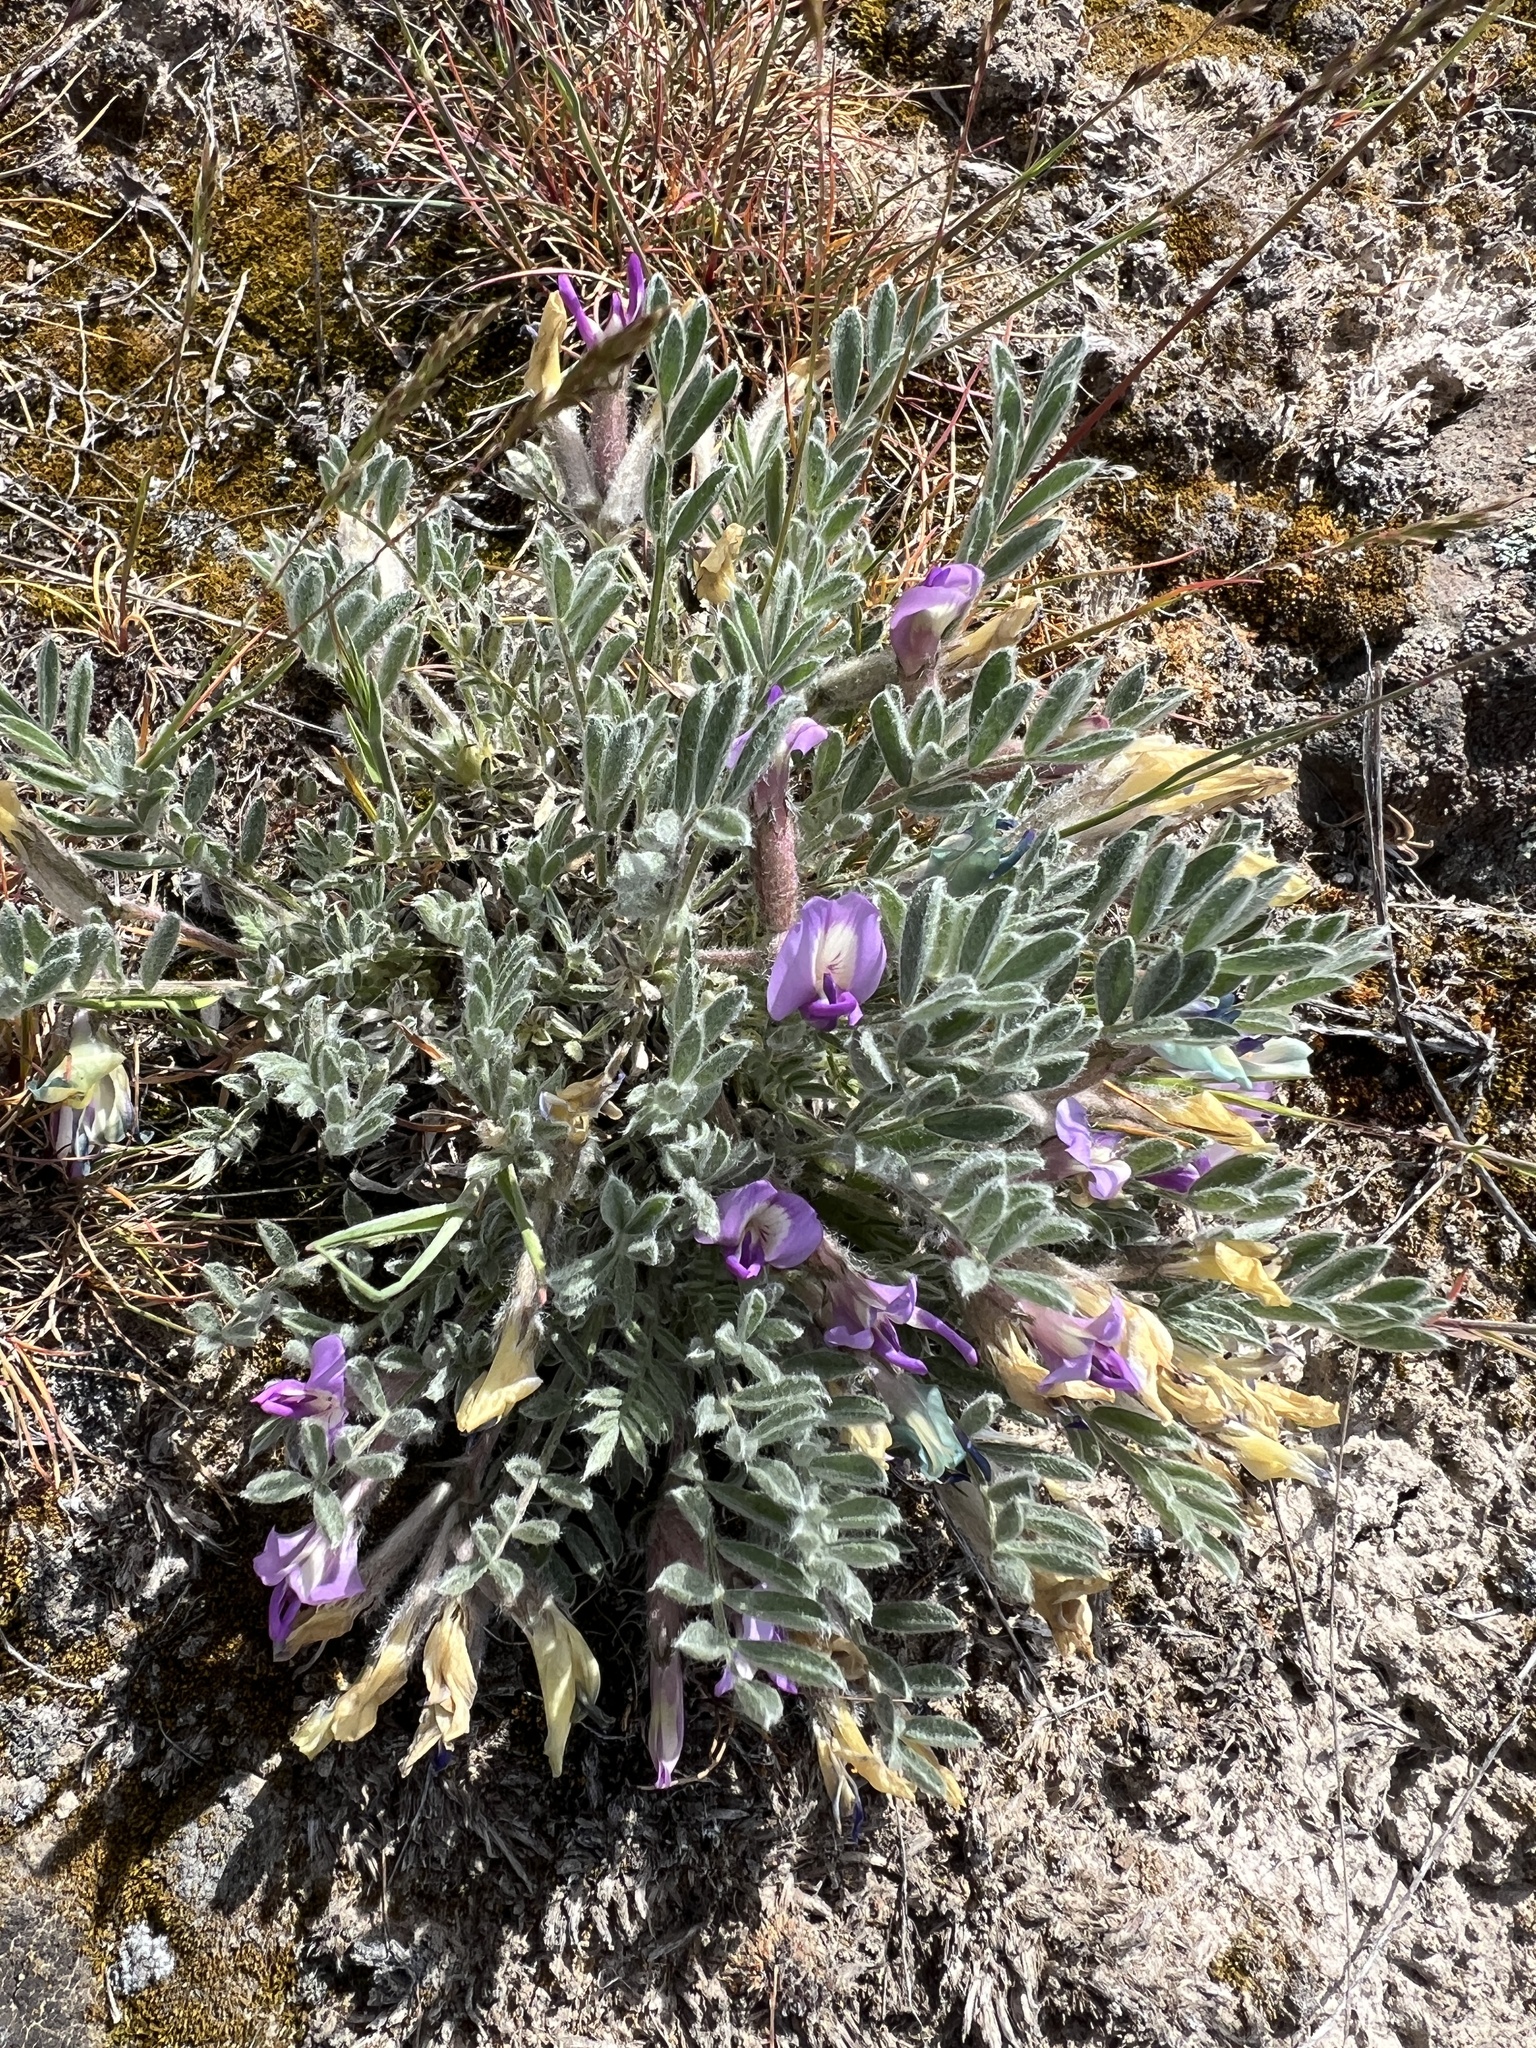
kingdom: Plantae
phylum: Tracheophyta
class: Magnoliopsida
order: Fabales
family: Fabaceae
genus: Astragalus
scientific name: Astragalus purshii
